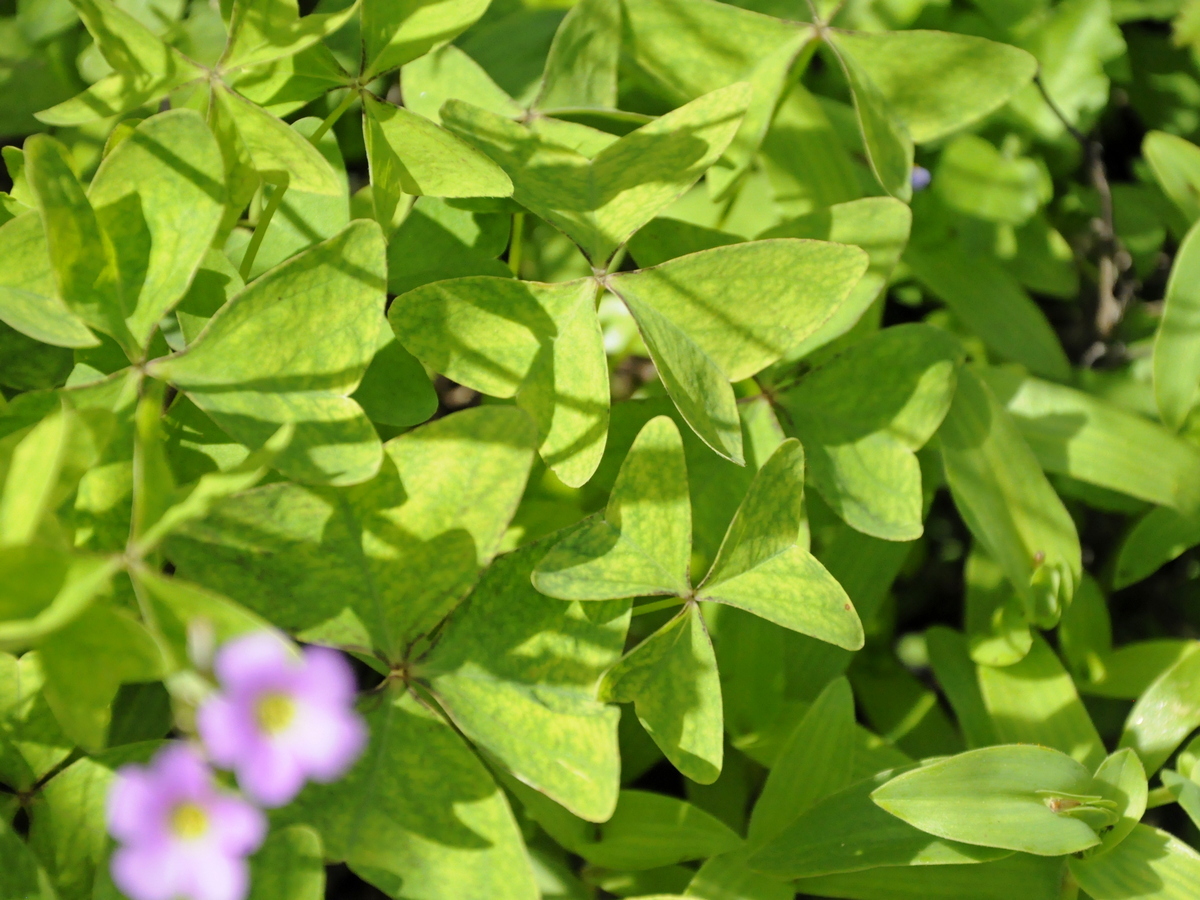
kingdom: Plantae
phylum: Tracheophyta
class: Magnoliopsida
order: Oxalidales
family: Oxalidaceae
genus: Oxalis
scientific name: Oxalis latifolia
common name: Garden pink-sorrel
